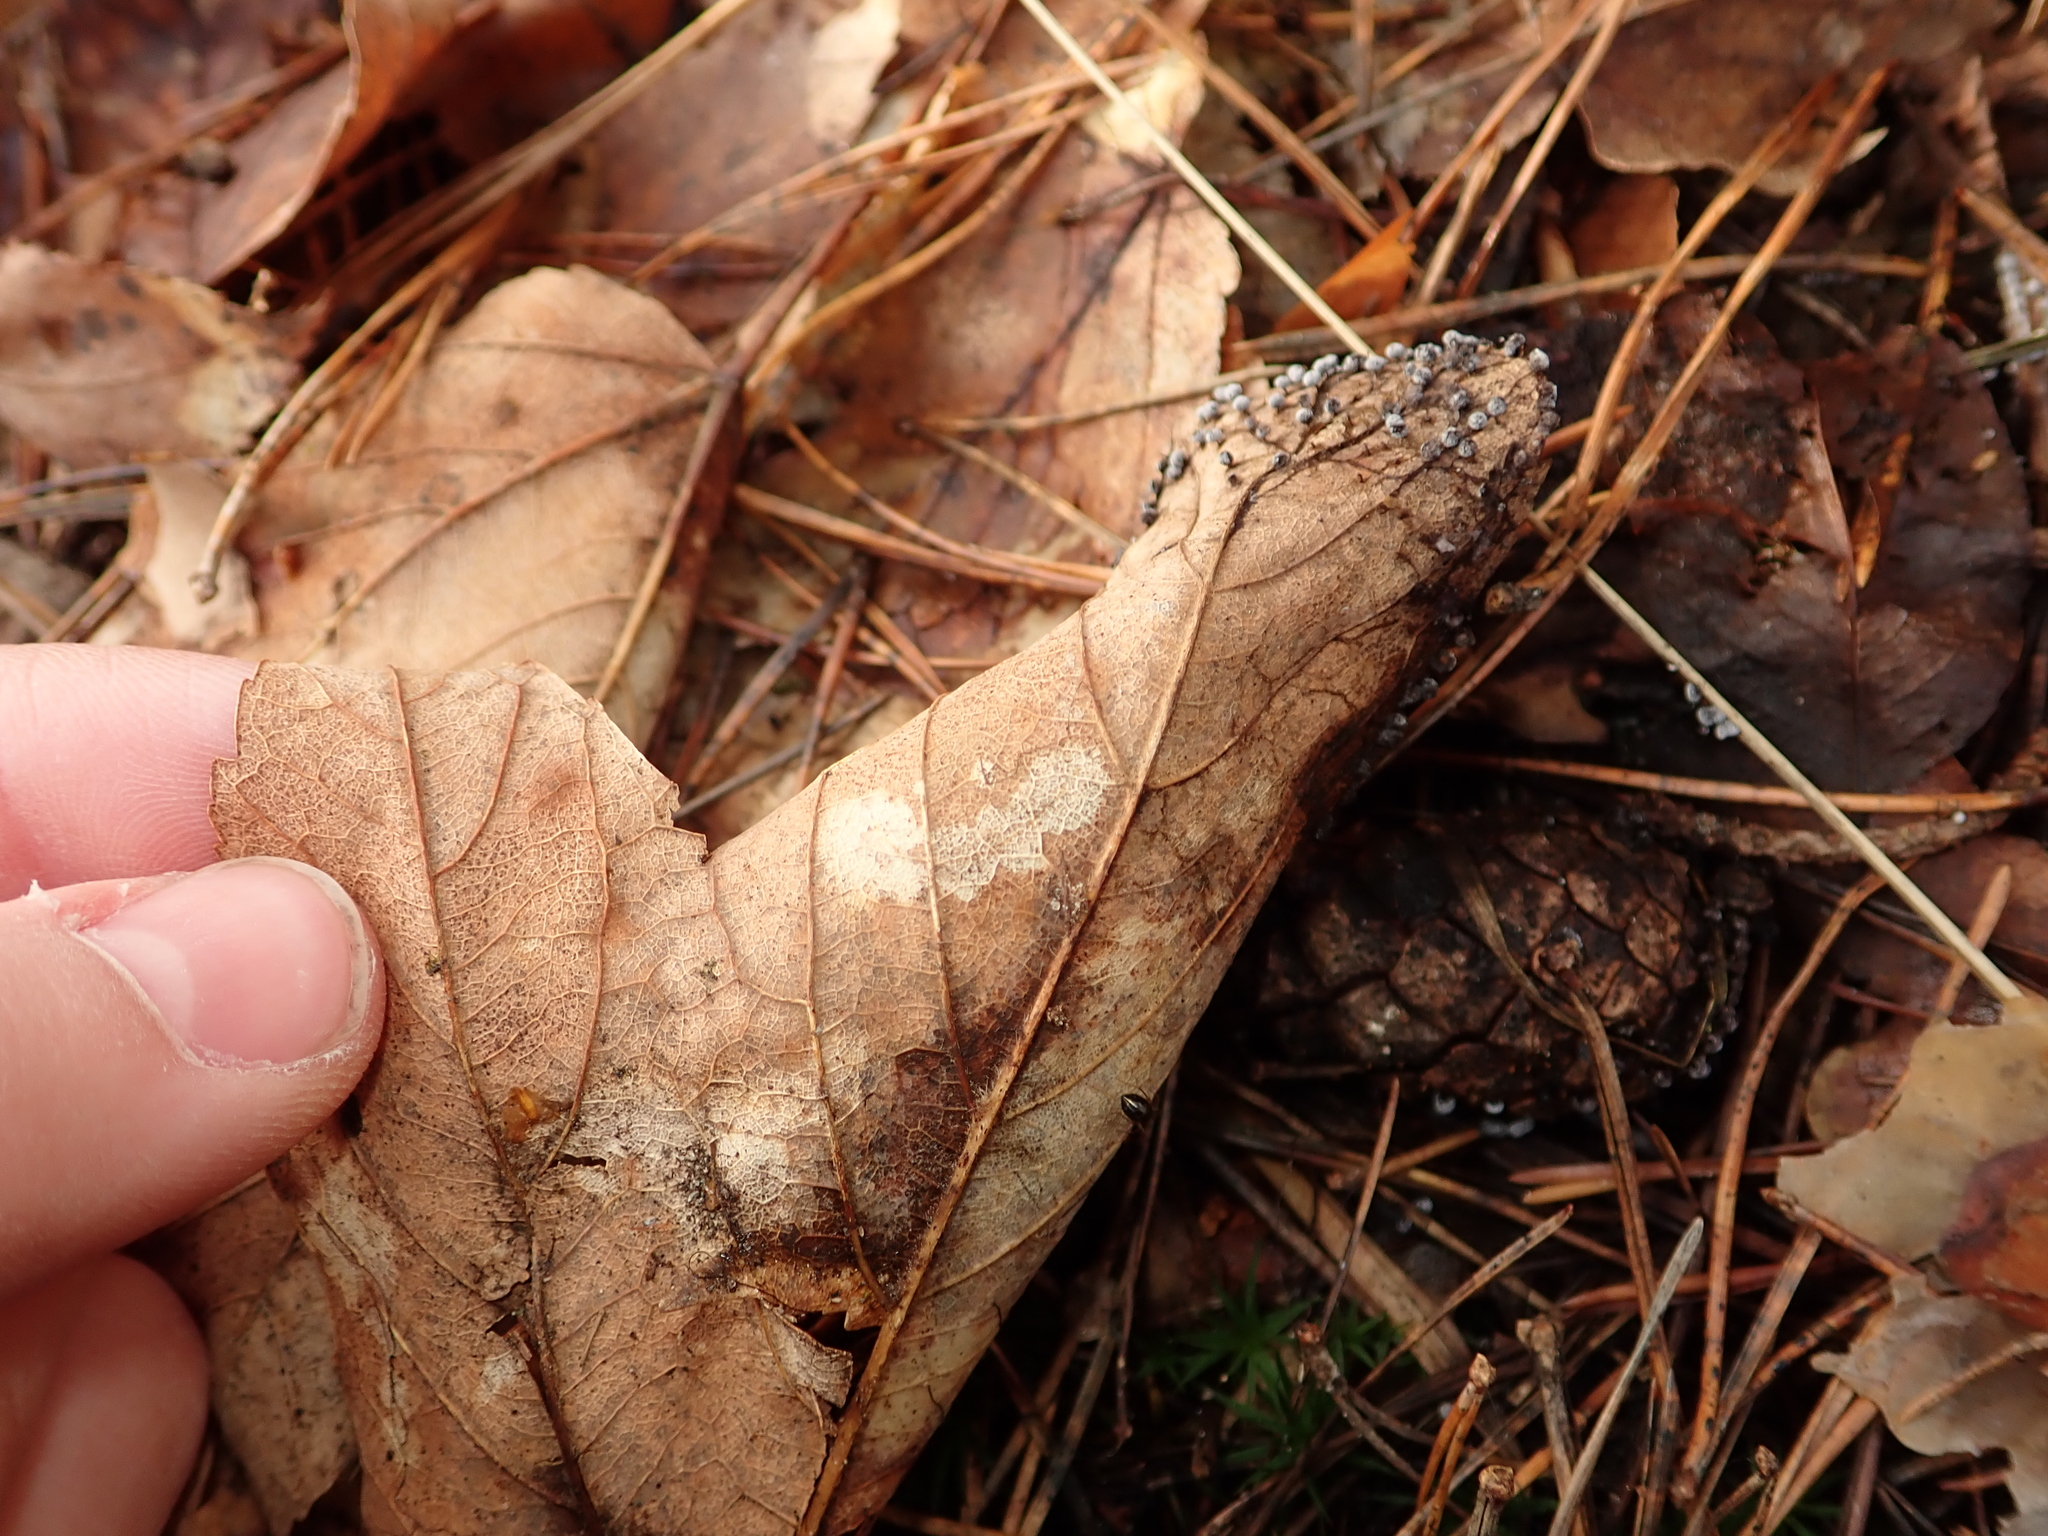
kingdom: Plantae
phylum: Tracheophyta
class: Magnoliopsida
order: Sapindales
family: Sapindaceae
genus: Acer
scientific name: Acer pseudoplatanus
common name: Sycamore
